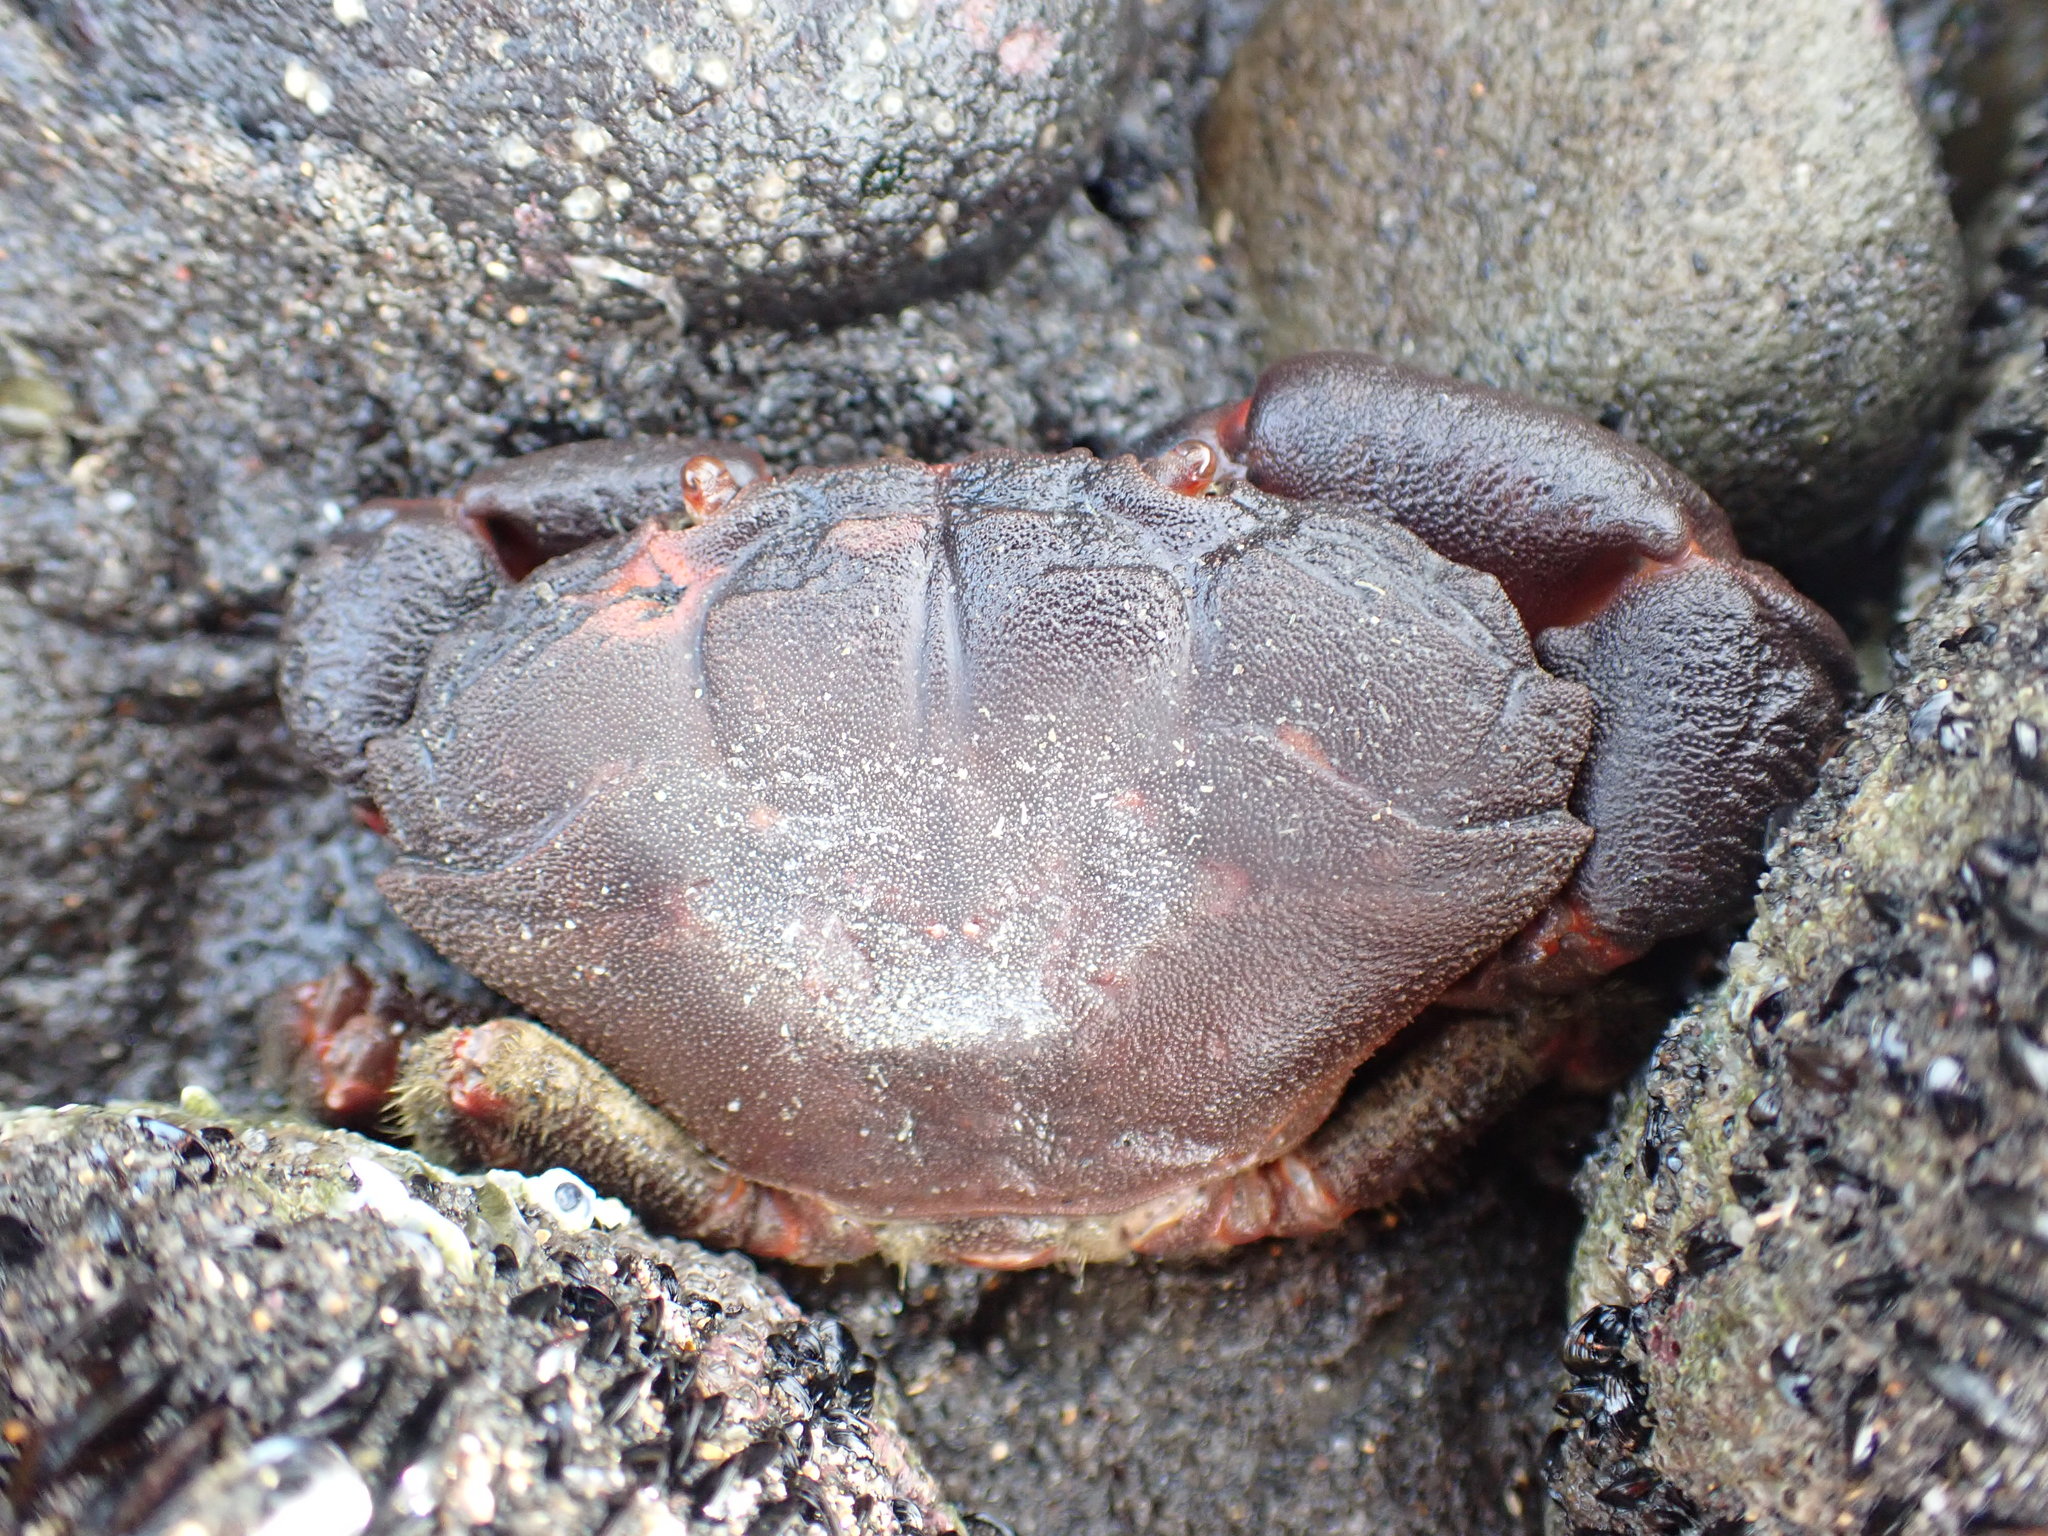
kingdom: Animalia
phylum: Arthropoda
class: Malacostraca
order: Decapoda
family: Oziidae
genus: Ozius
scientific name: Ozius deplanatus
